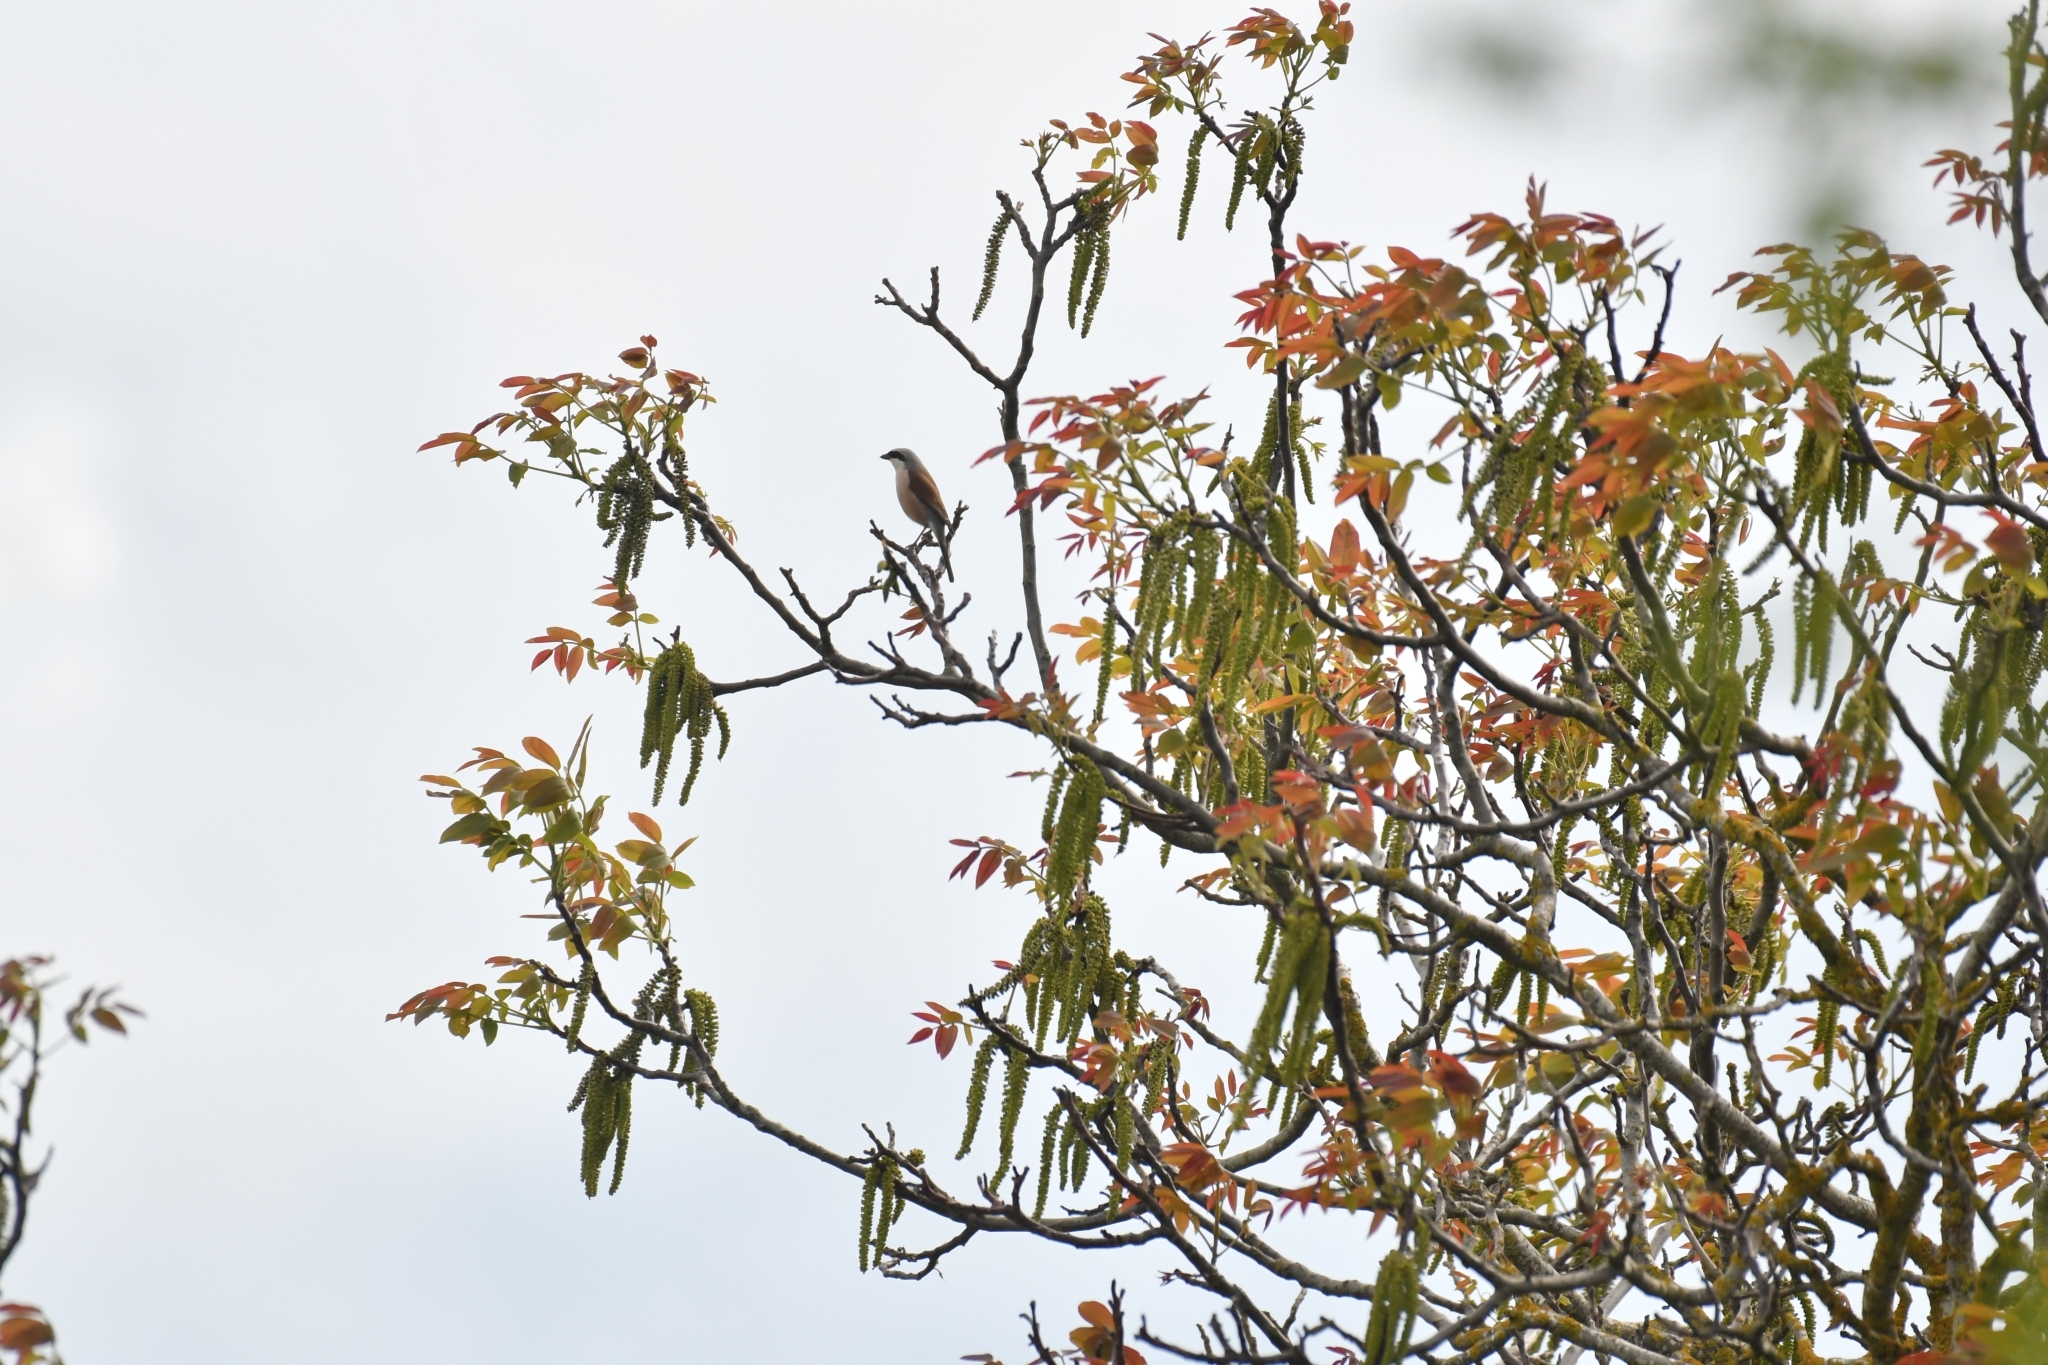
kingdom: Animalia
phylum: Chordata
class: Aves
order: Passeriformes
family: Laniidae
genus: Lanius
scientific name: Lanius collurio
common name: Red-backed shrike
